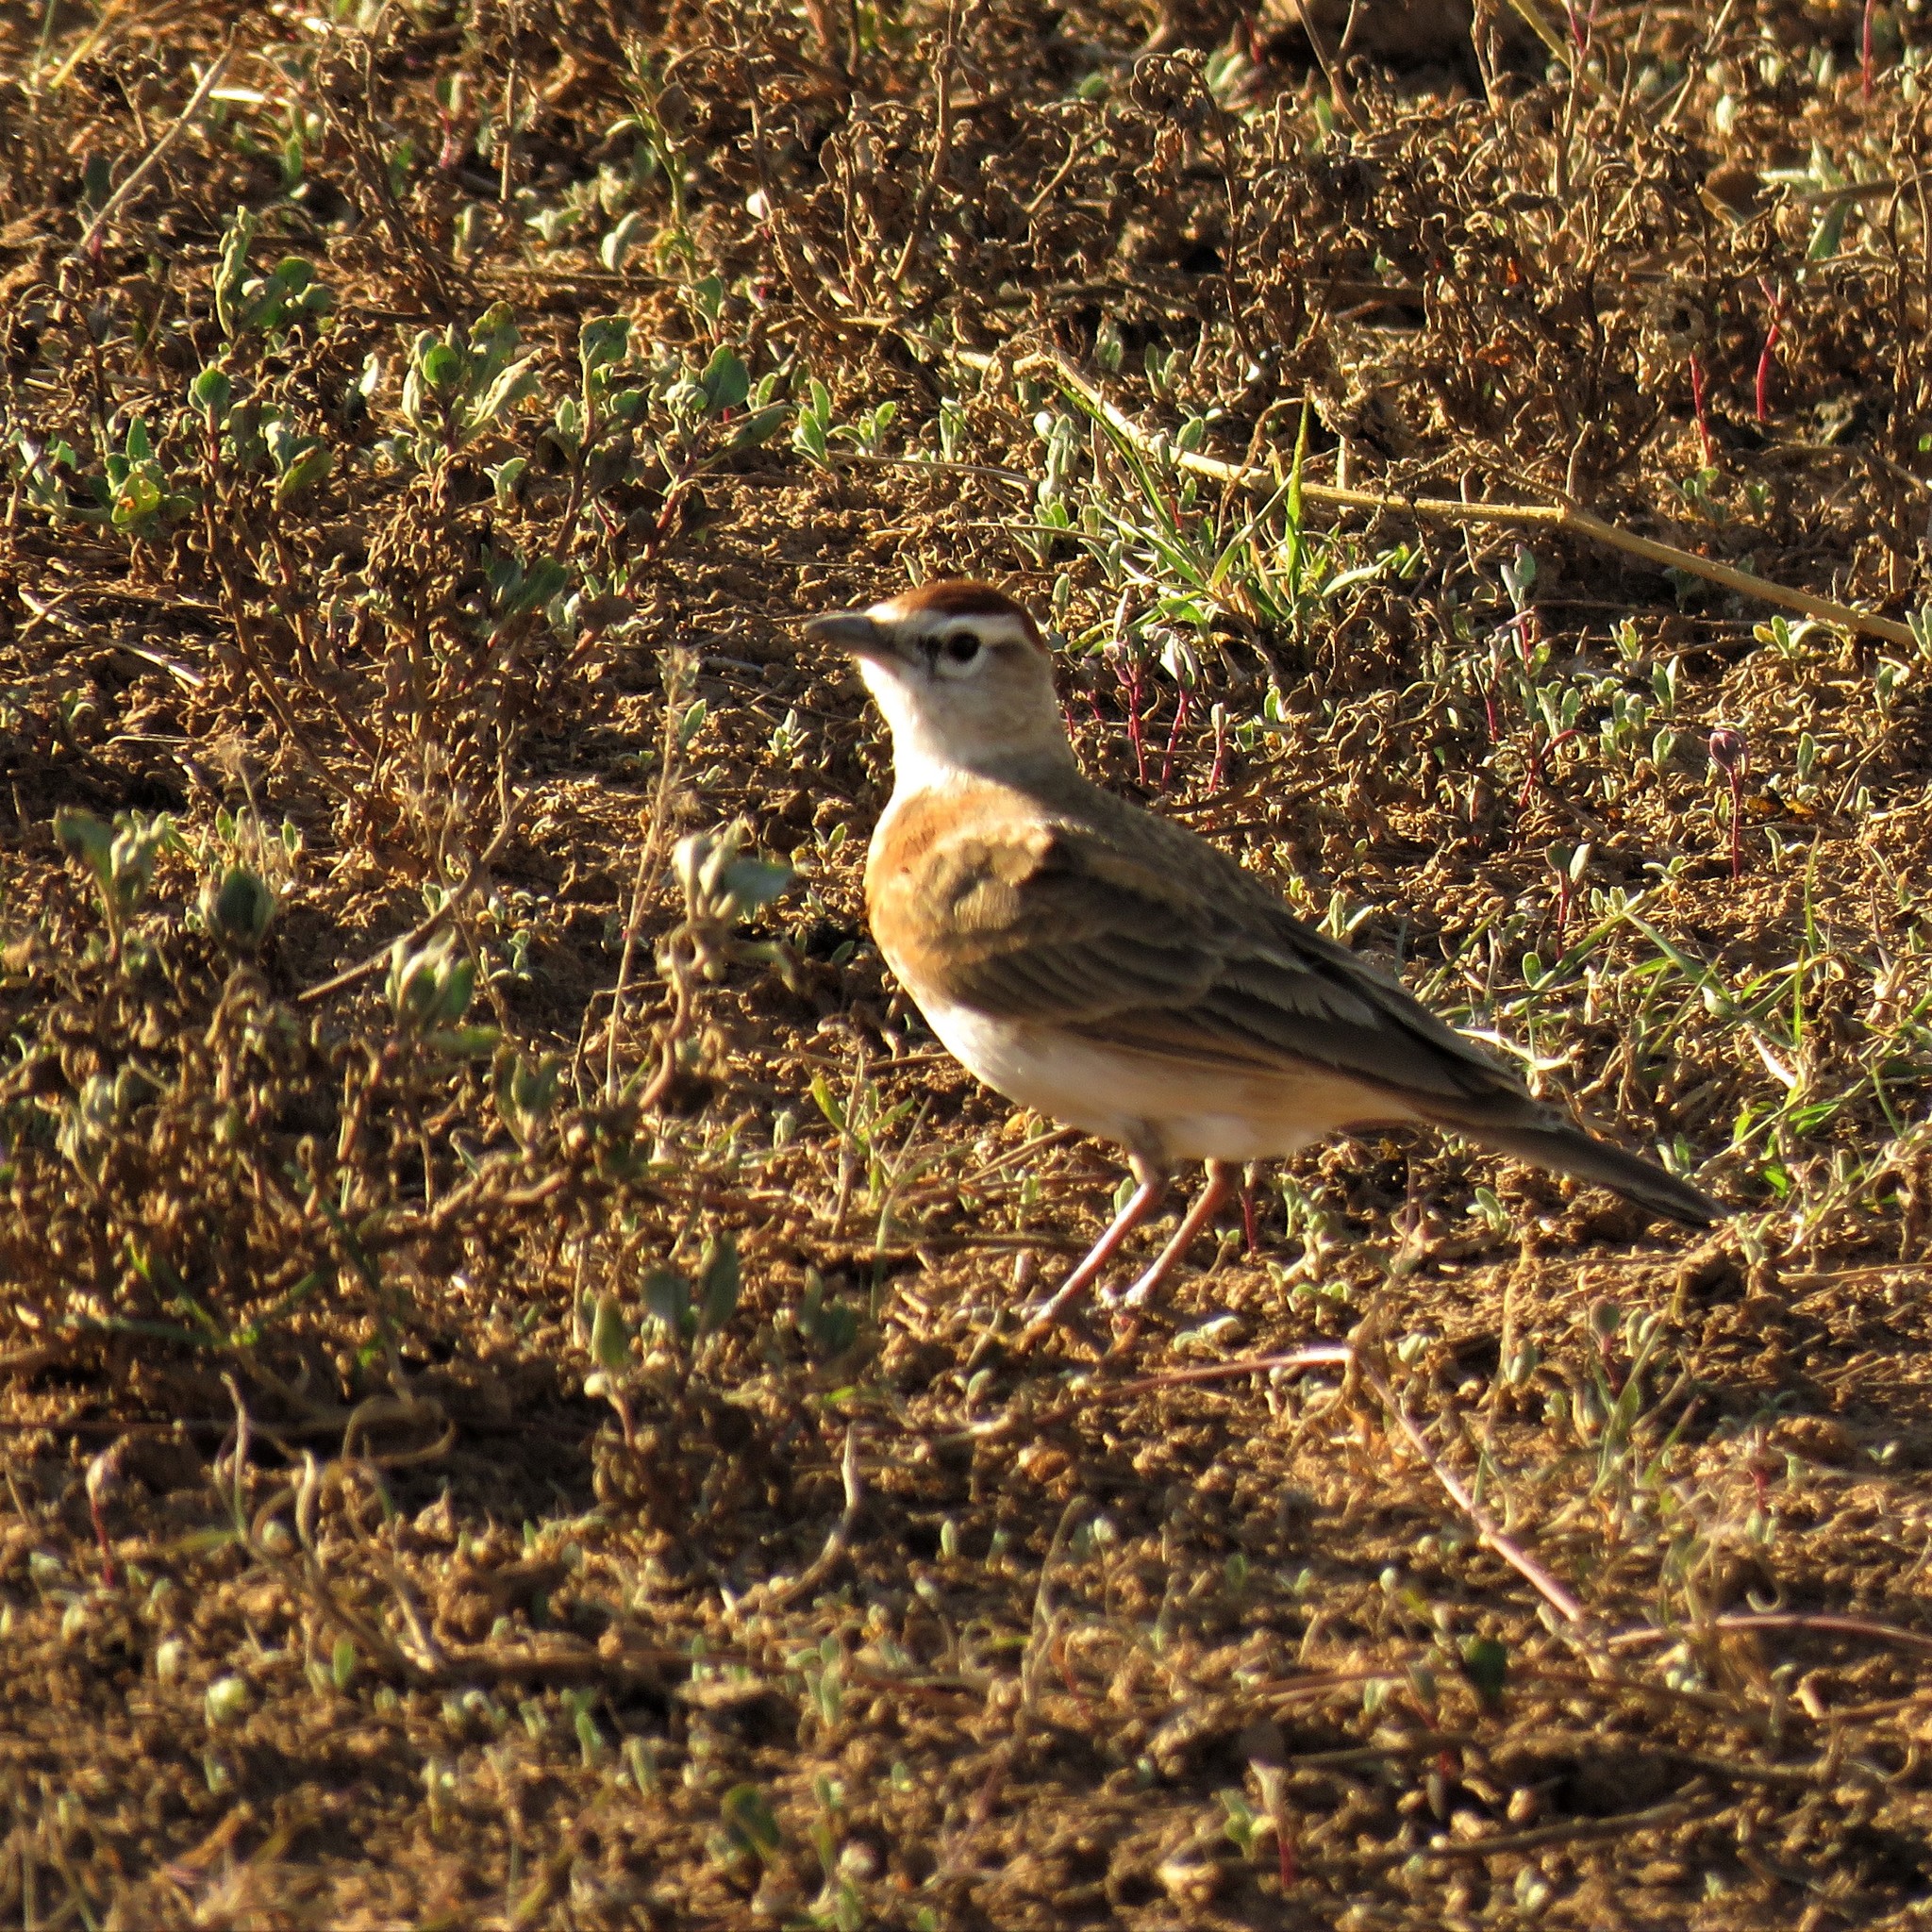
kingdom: Animalia
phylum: Chordata
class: Aves
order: Passeriformes
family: Alaudidae
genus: Calandrella
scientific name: Calandrella cinerea
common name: Red-capped lark
